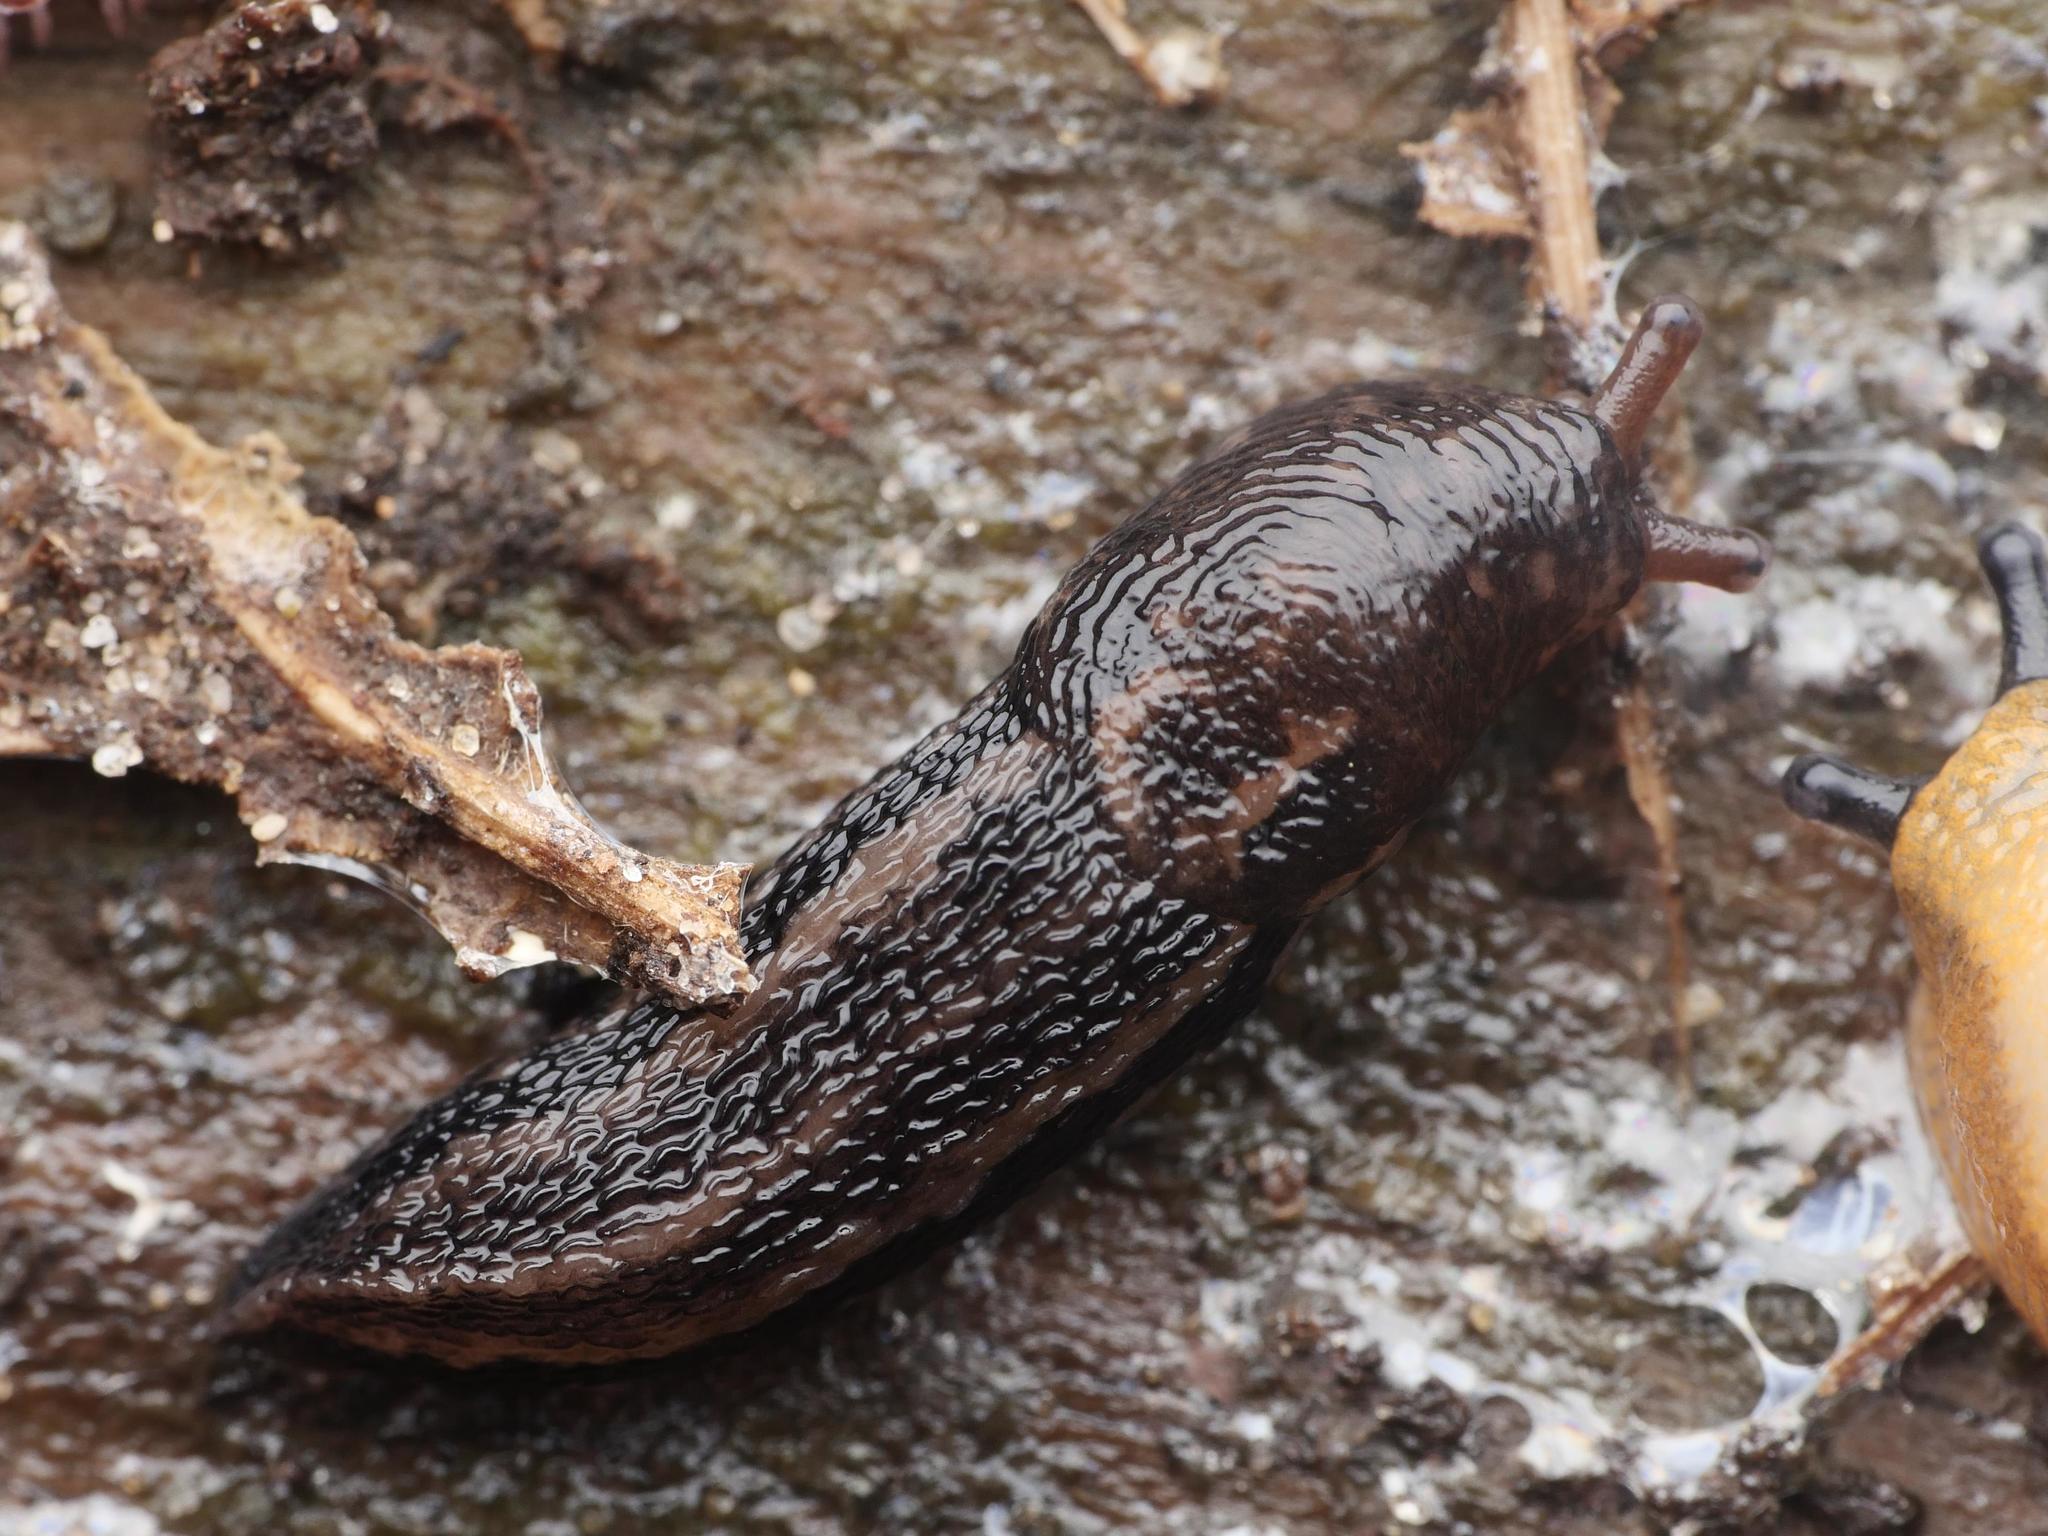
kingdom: Animalia
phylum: Mollusca
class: Gastropoda
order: Stylommatophora
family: Limacidae
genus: Limax
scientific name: Limax maximus
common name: Great grey slug
